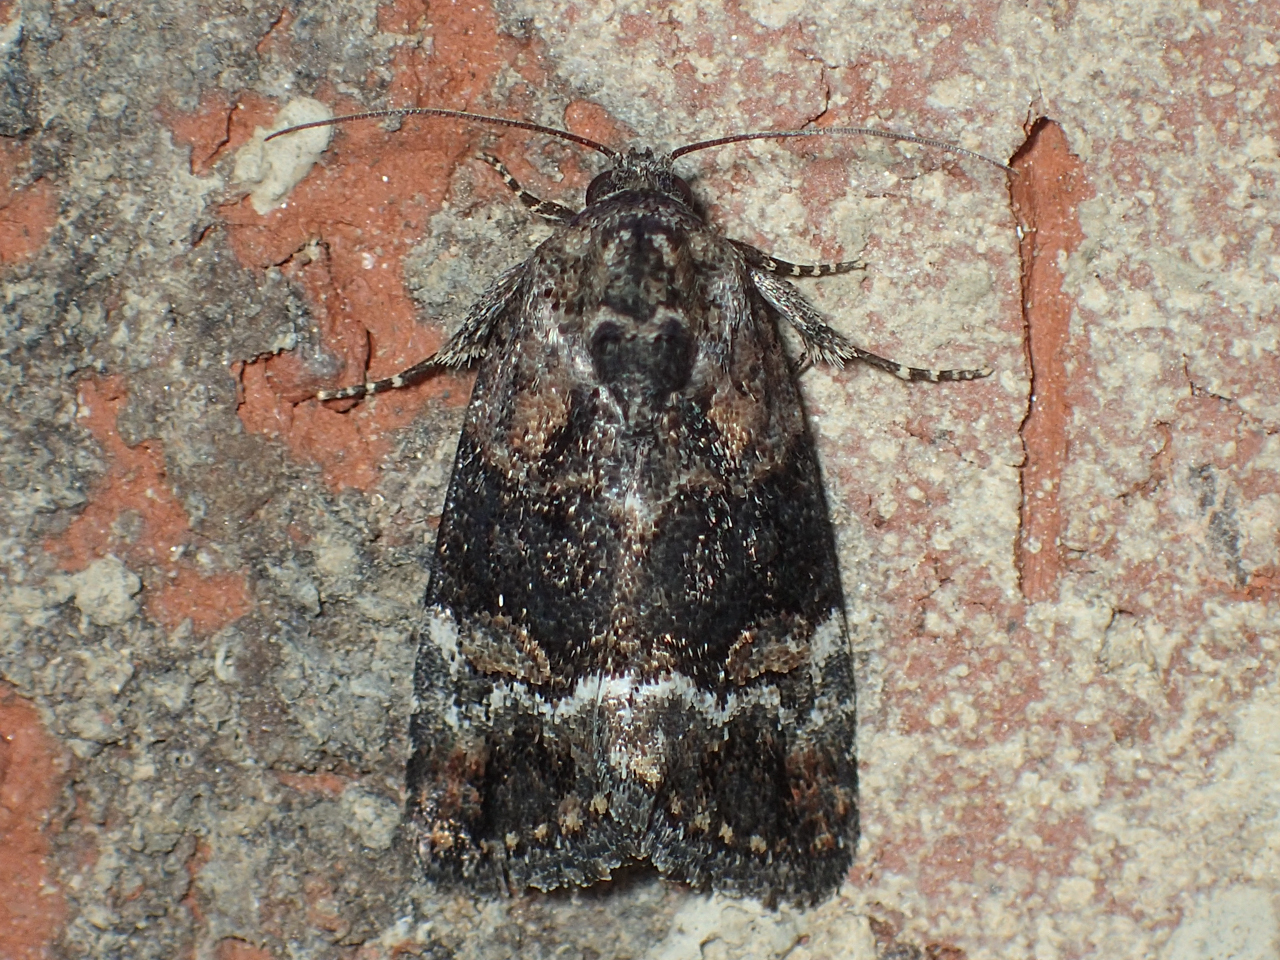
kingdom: Animalia
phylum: Arthropoda
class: Insecta
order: Lepidoptera
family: Noctuidae
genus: Elaphria
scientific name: Elaphria georgei
